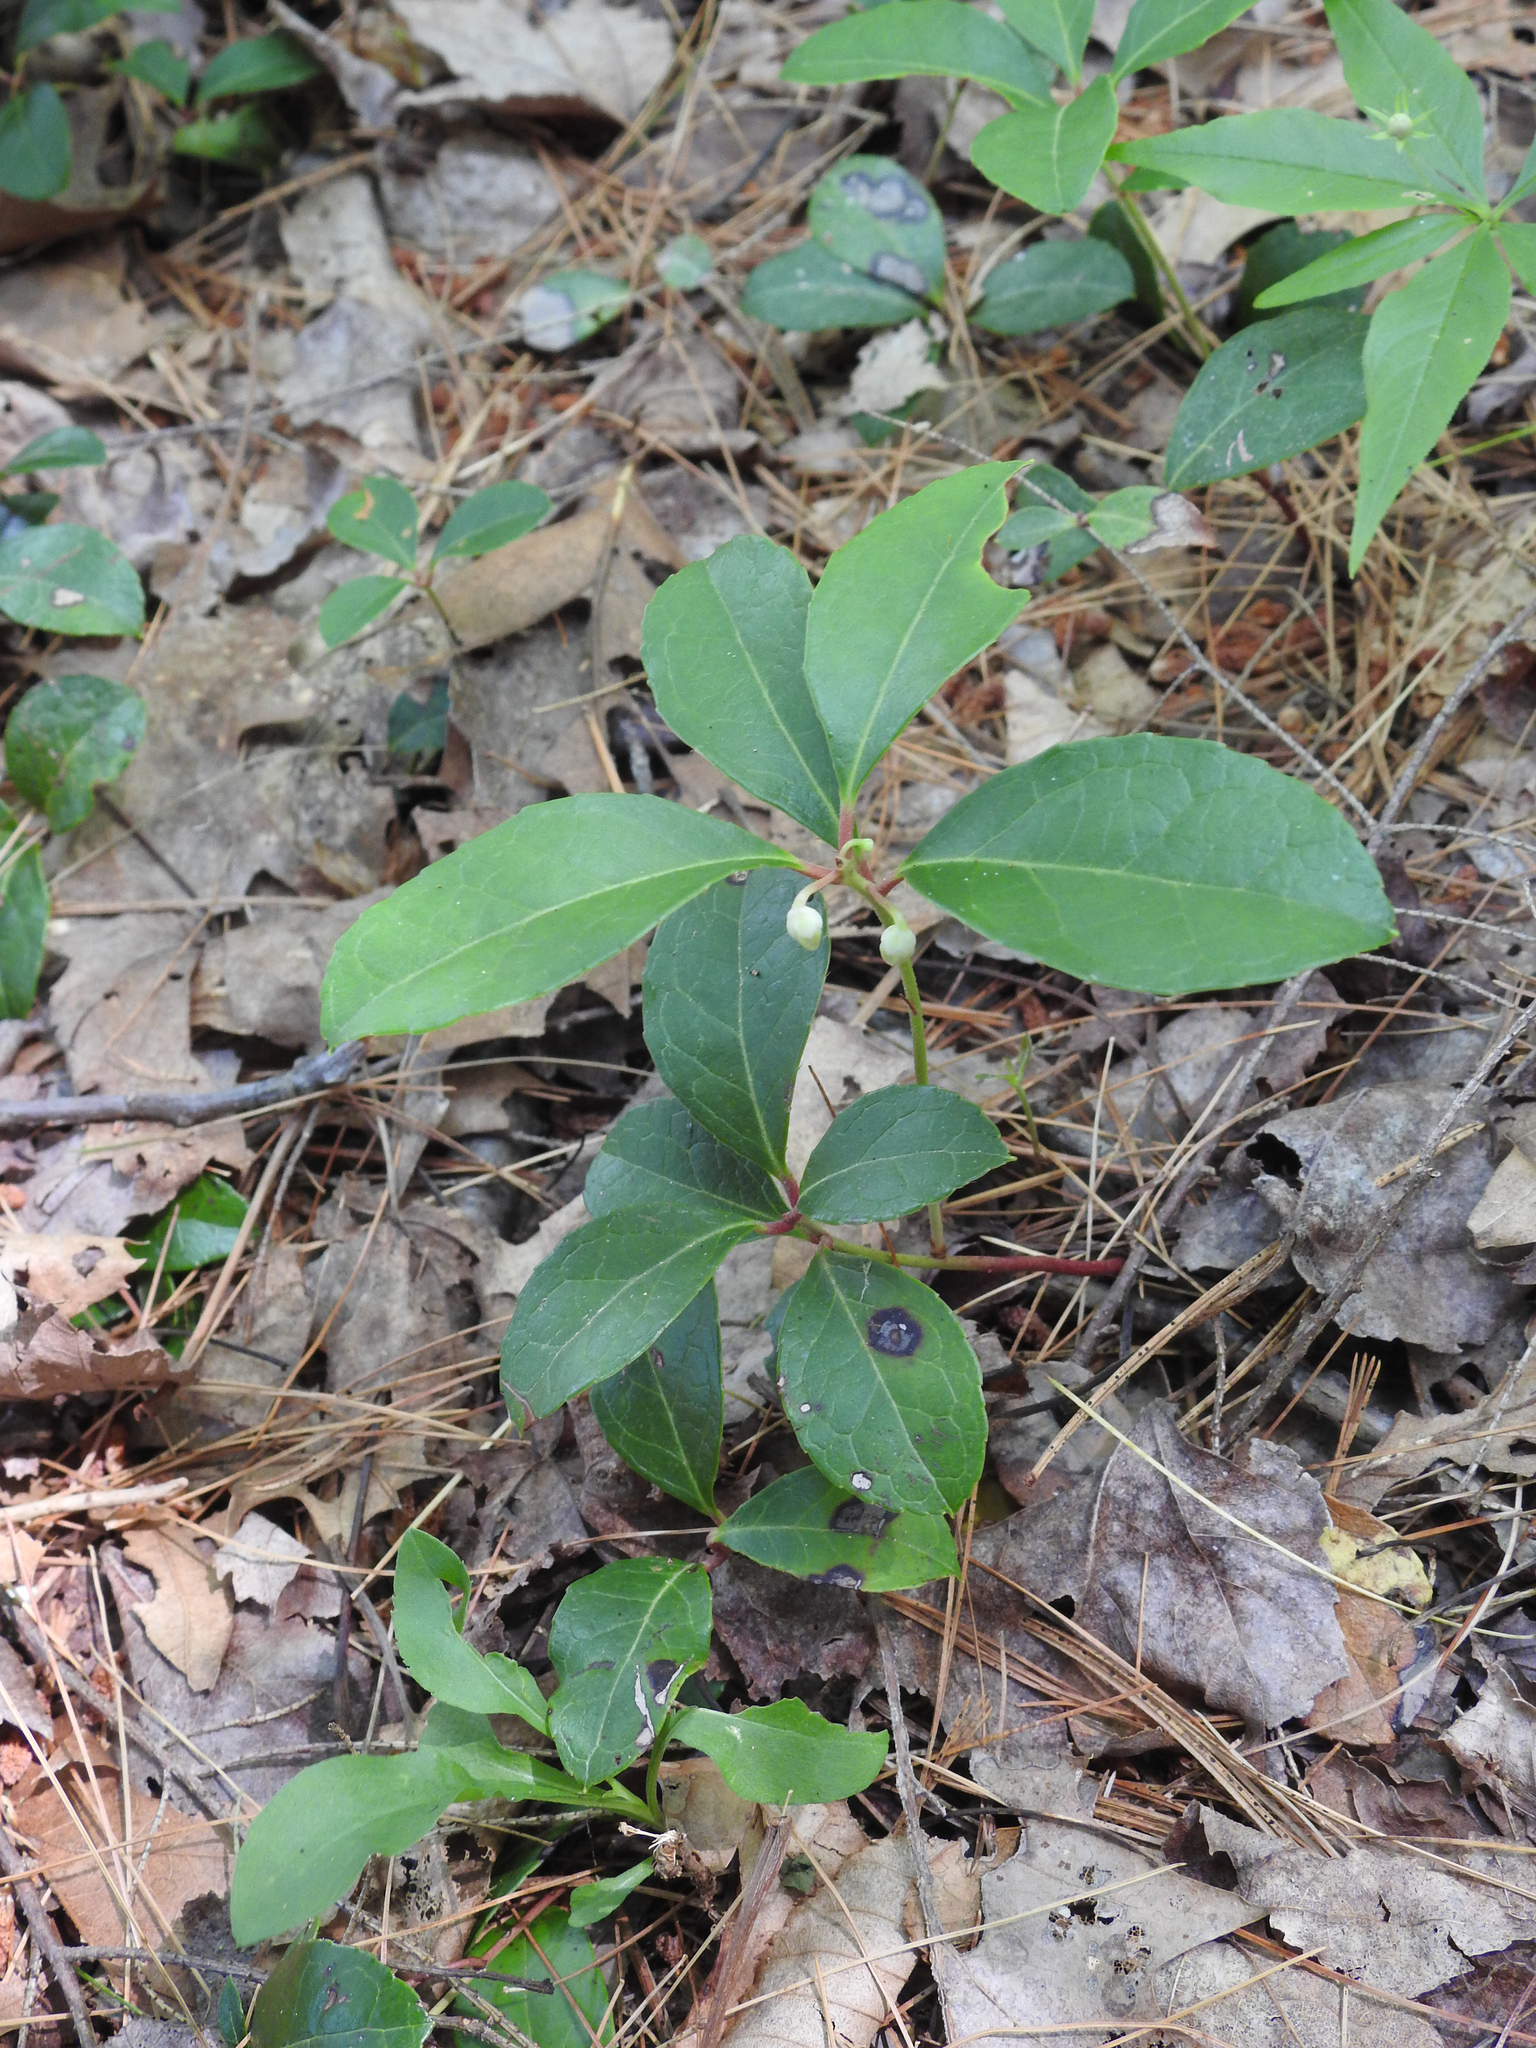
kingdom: Plantae
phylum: Tracheophyta
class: Magnoliopsida
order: Ericales
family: Ericaceae
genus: Gaultheria
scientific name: Gaultheria procumbens
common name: Checkerberry
